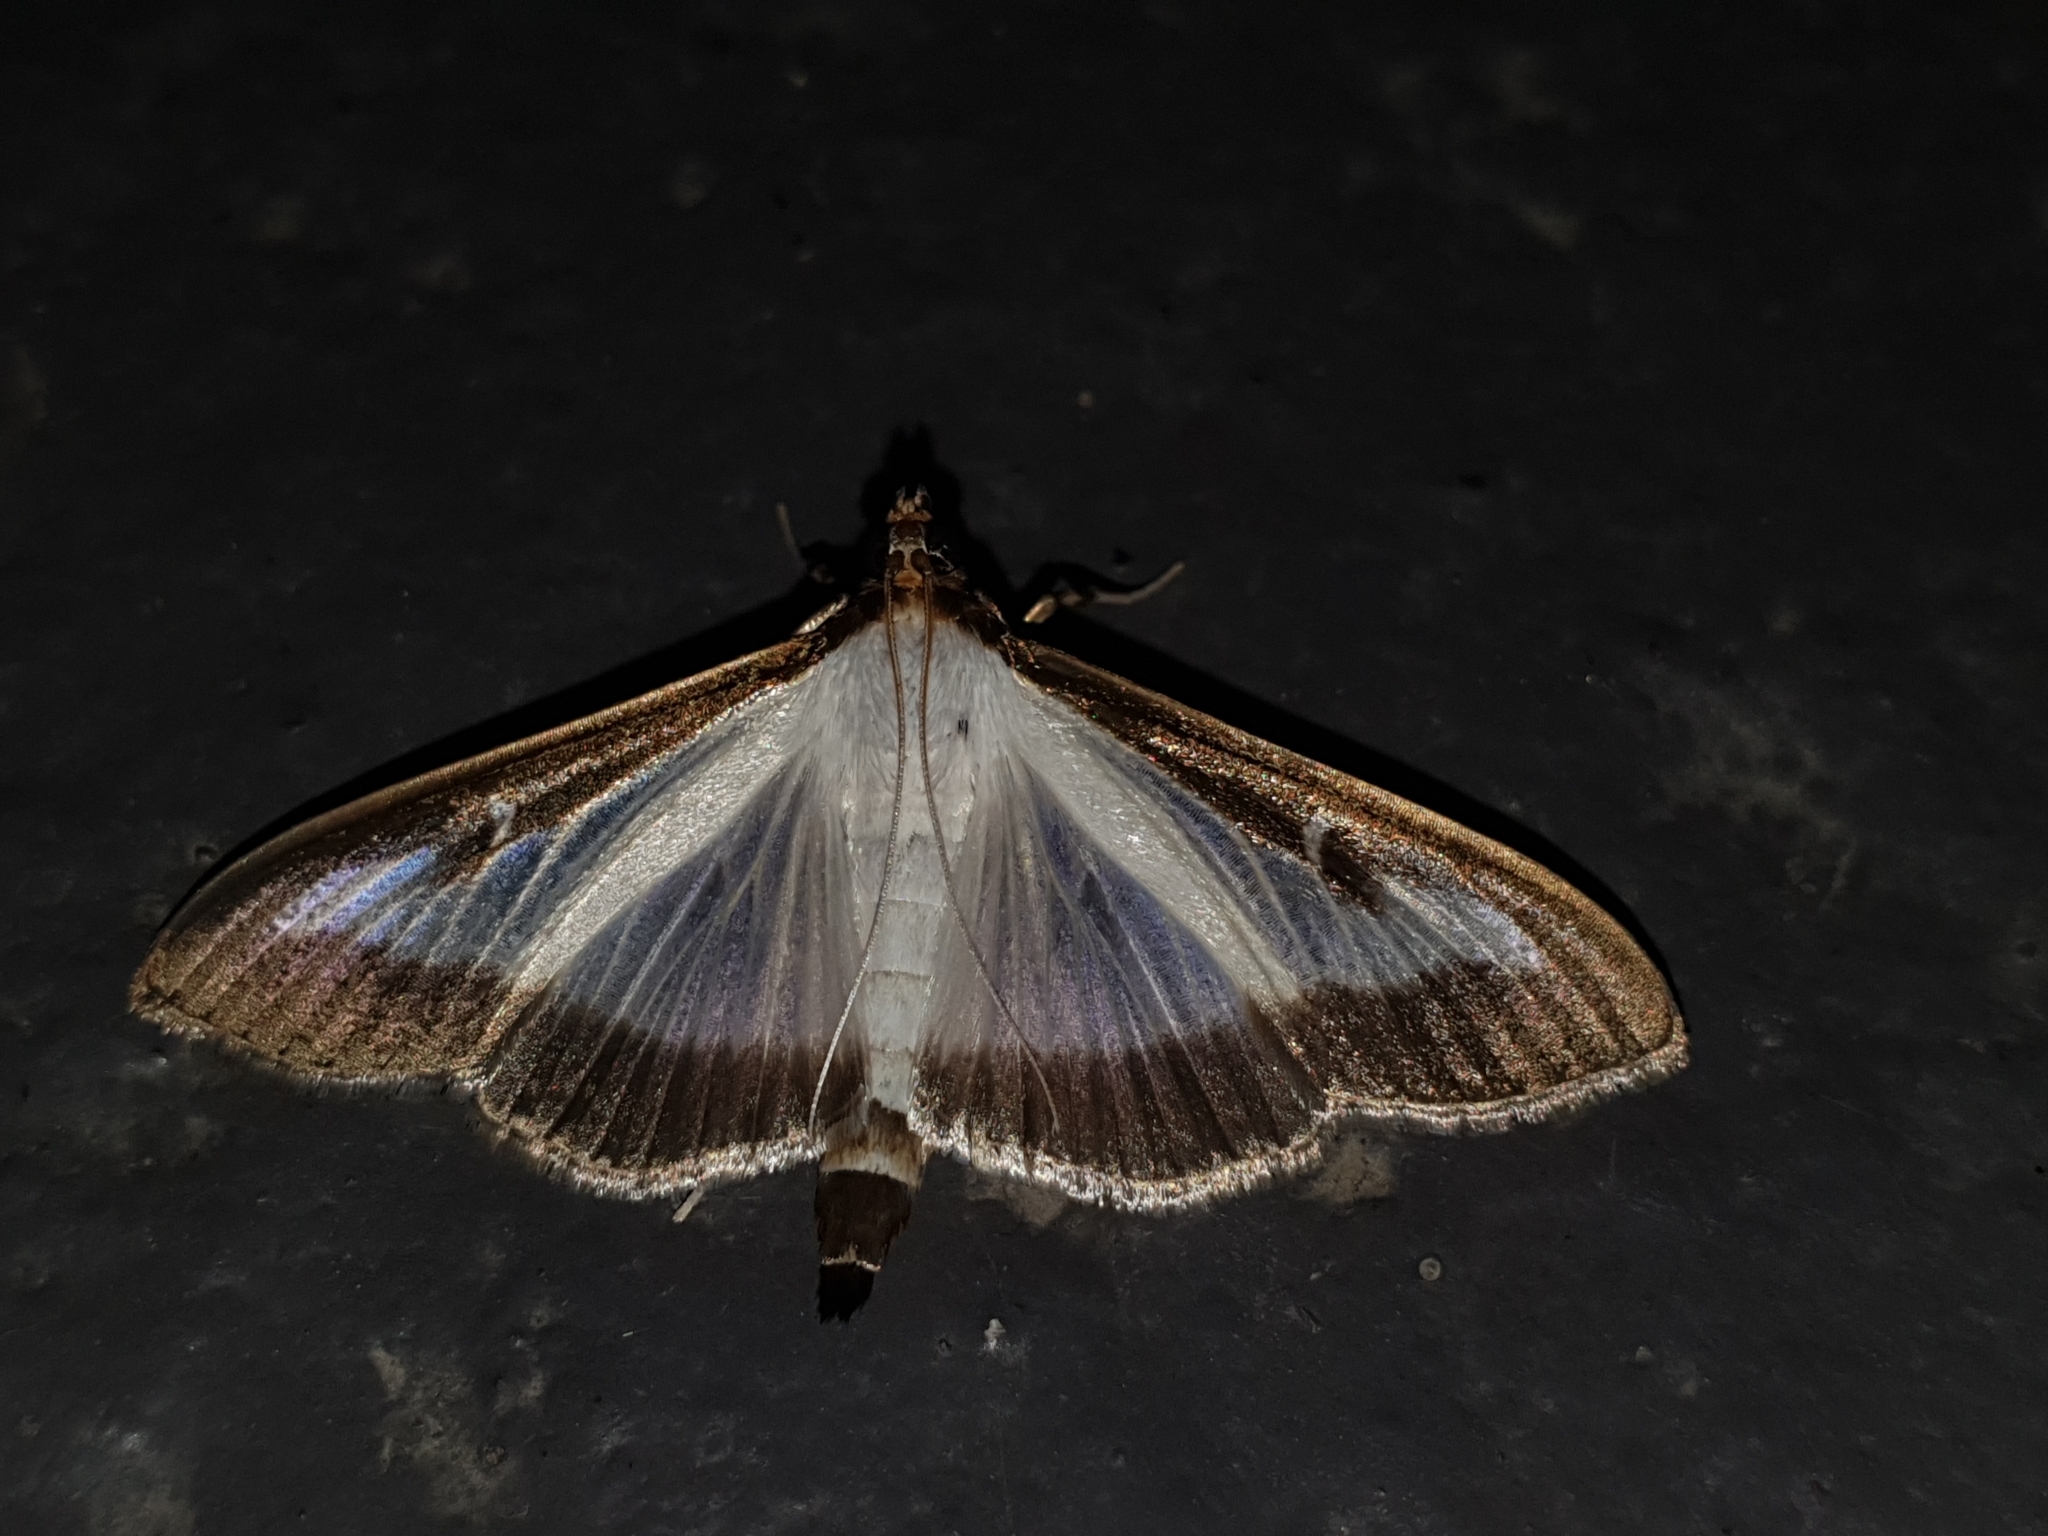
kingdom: Animalia
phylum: Arthropoda
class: Insecta
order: Lepidoptera
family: Crambidae
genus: Cydalima
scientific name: Cydalima perspectalis
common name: Box tree moth
